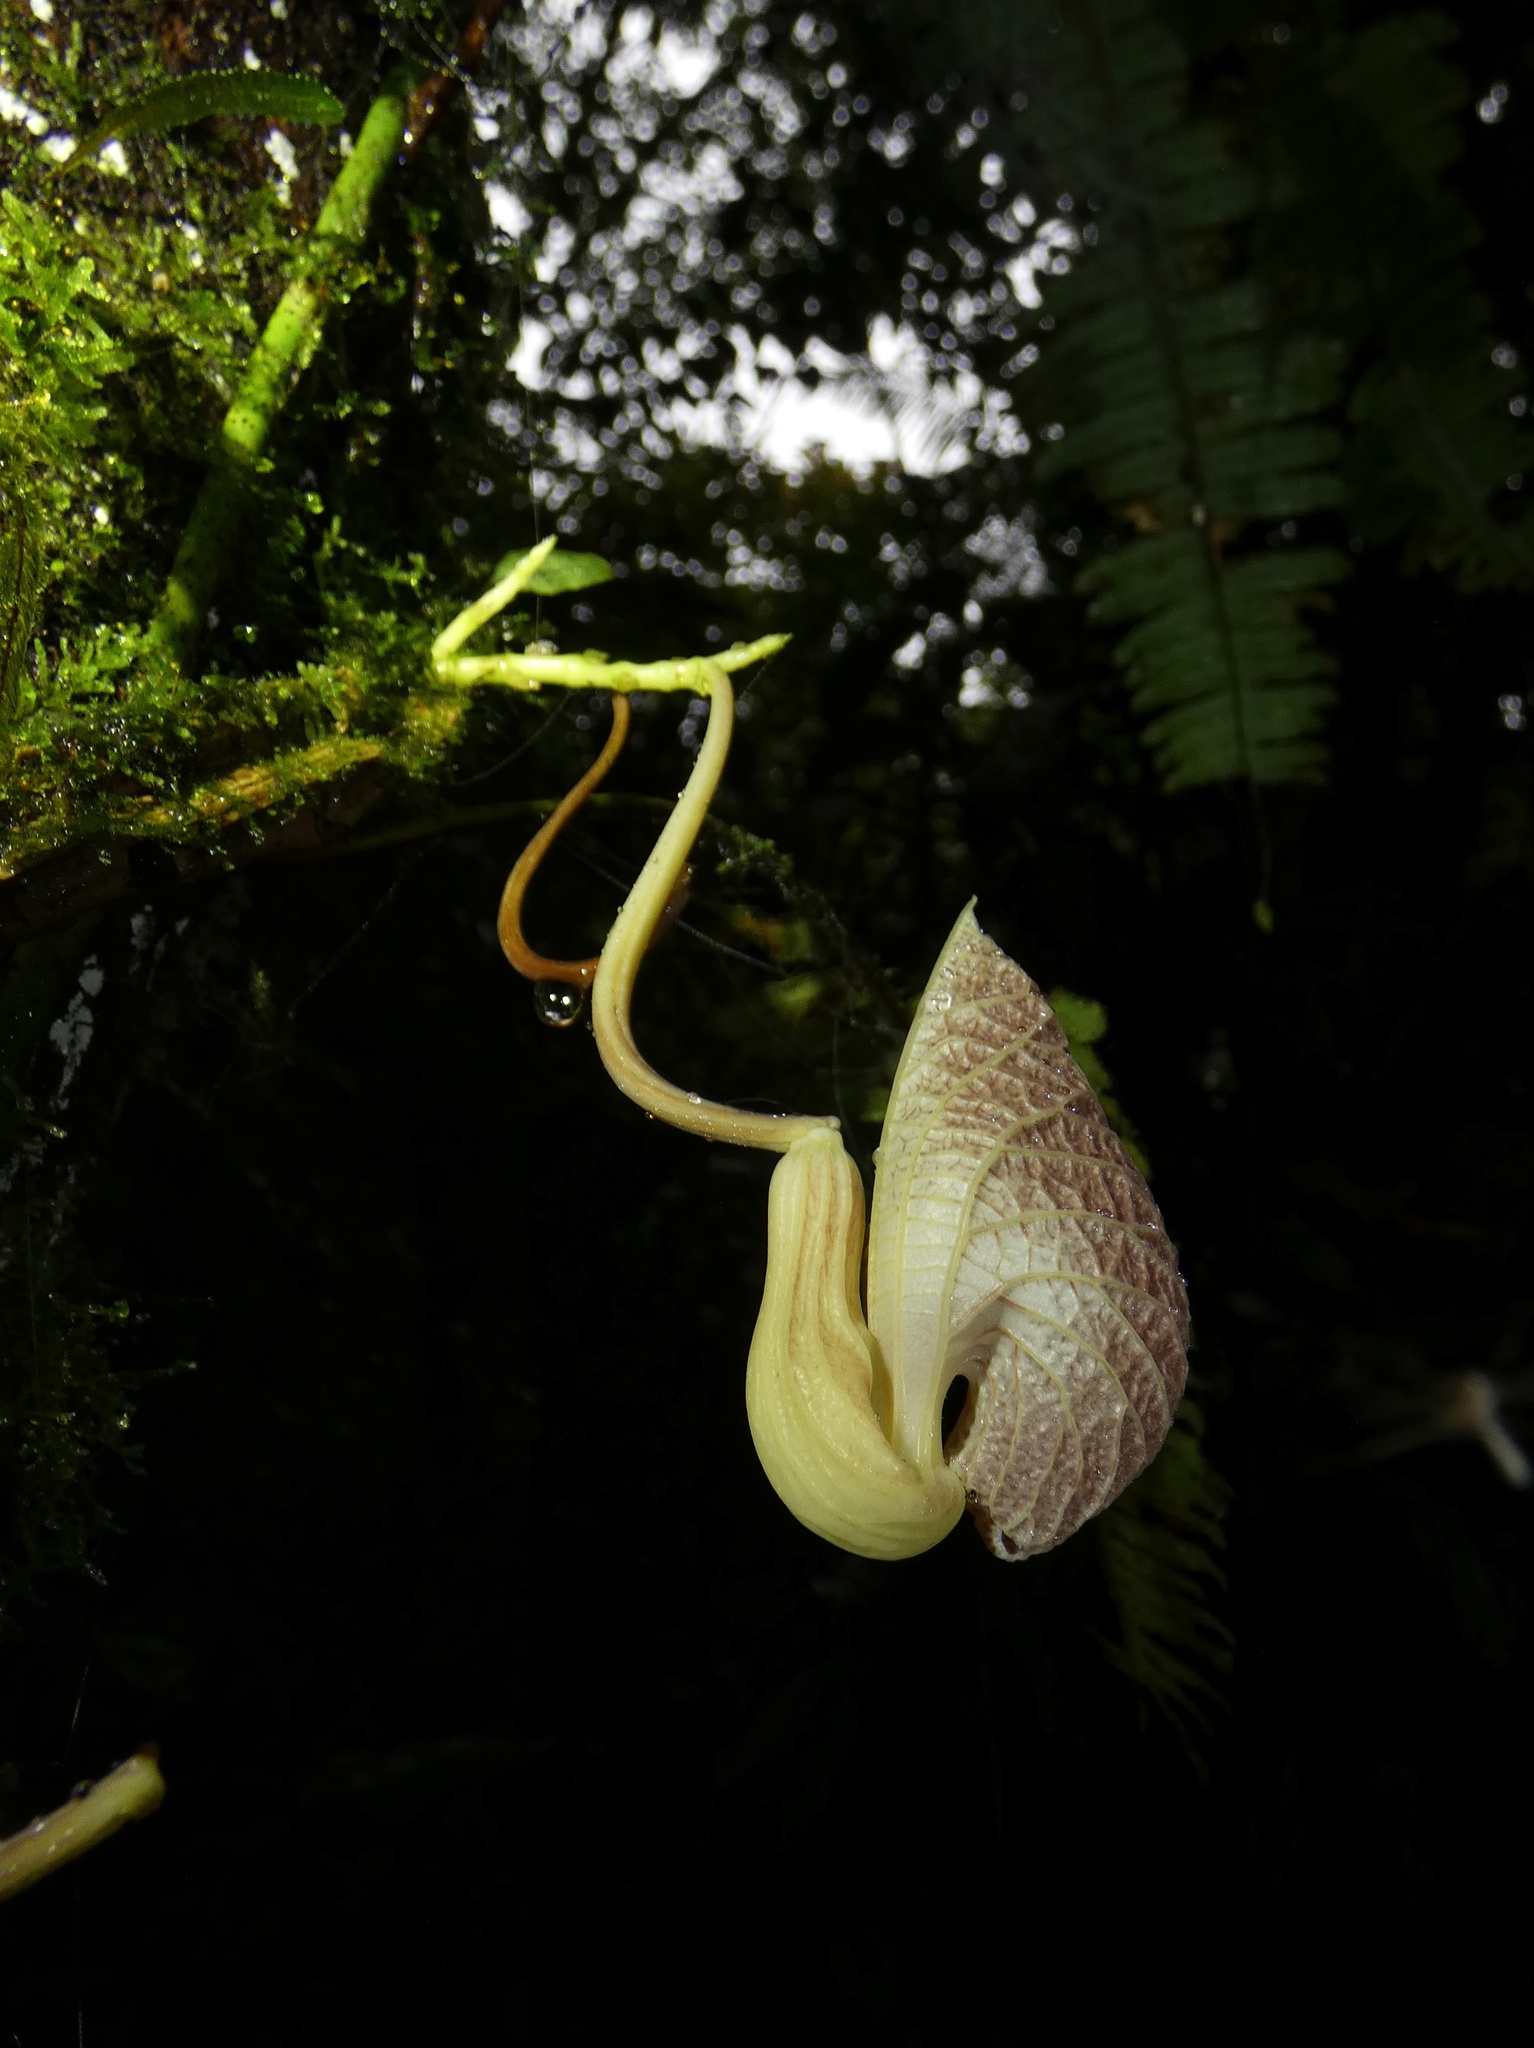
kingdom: Plantae
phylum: Tracheophyta
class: Magnoliopsida
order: Piperales
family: Aristolochiaceae
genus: Aristolochia
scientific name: Aristolochia povedae
